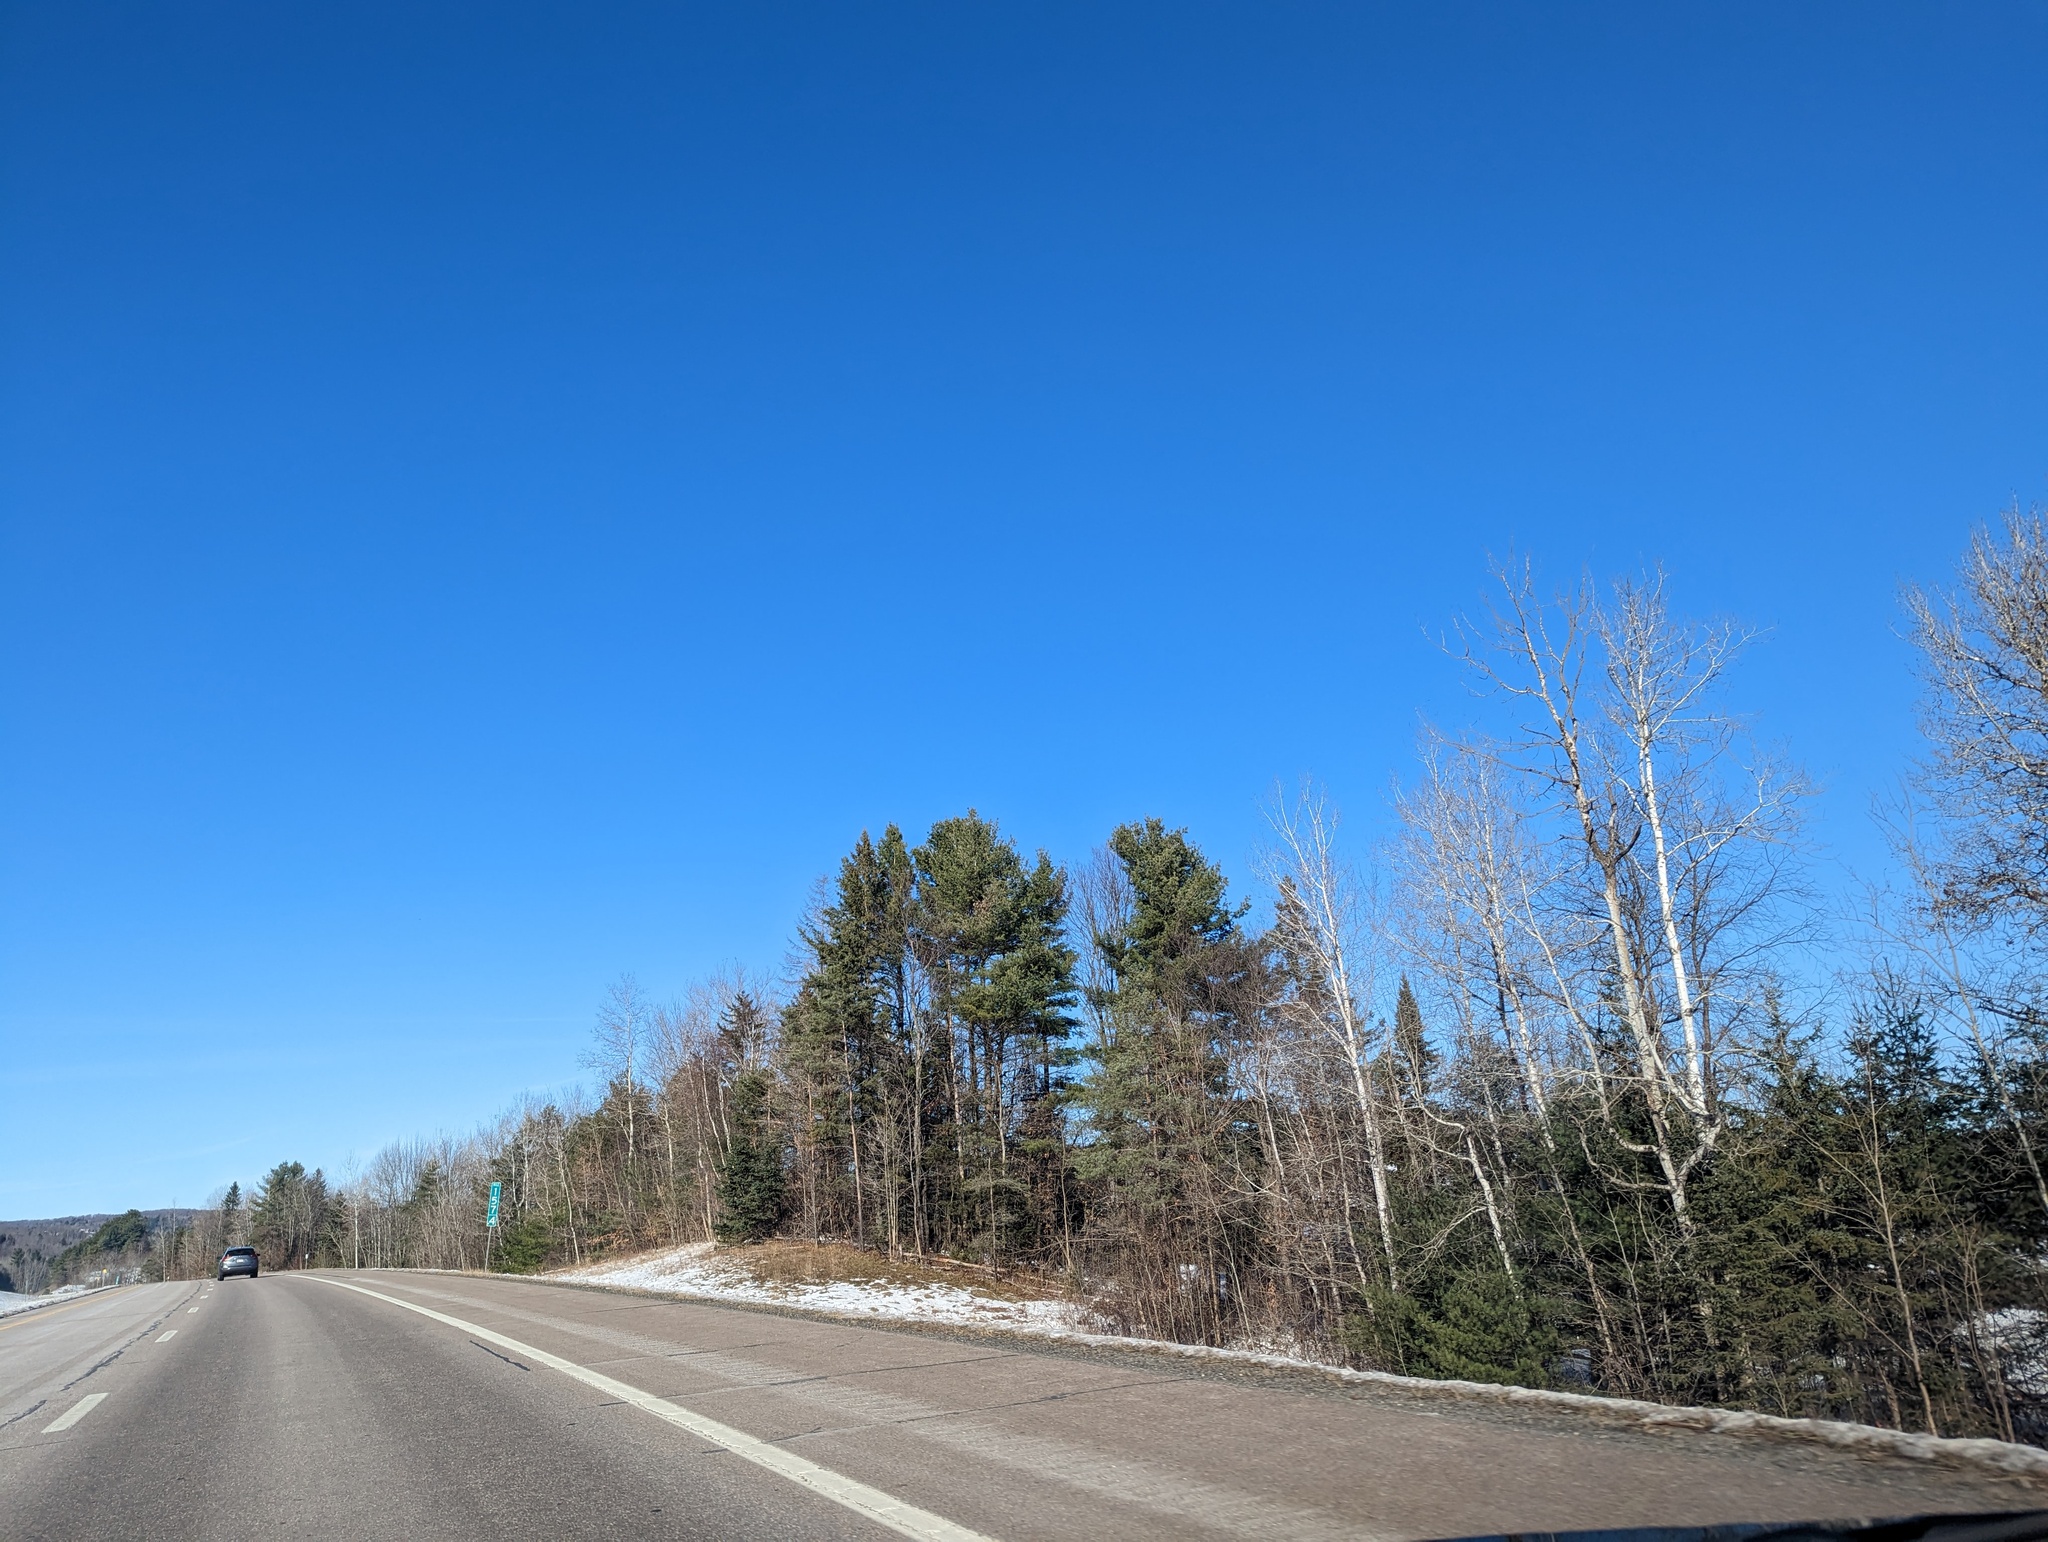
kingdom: Plantae
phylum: Tracheophyta
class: Pinopsida
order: Pinales
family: Pinaceae
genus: Pinus
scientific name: Pinus strobus
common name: Weymouth pine
